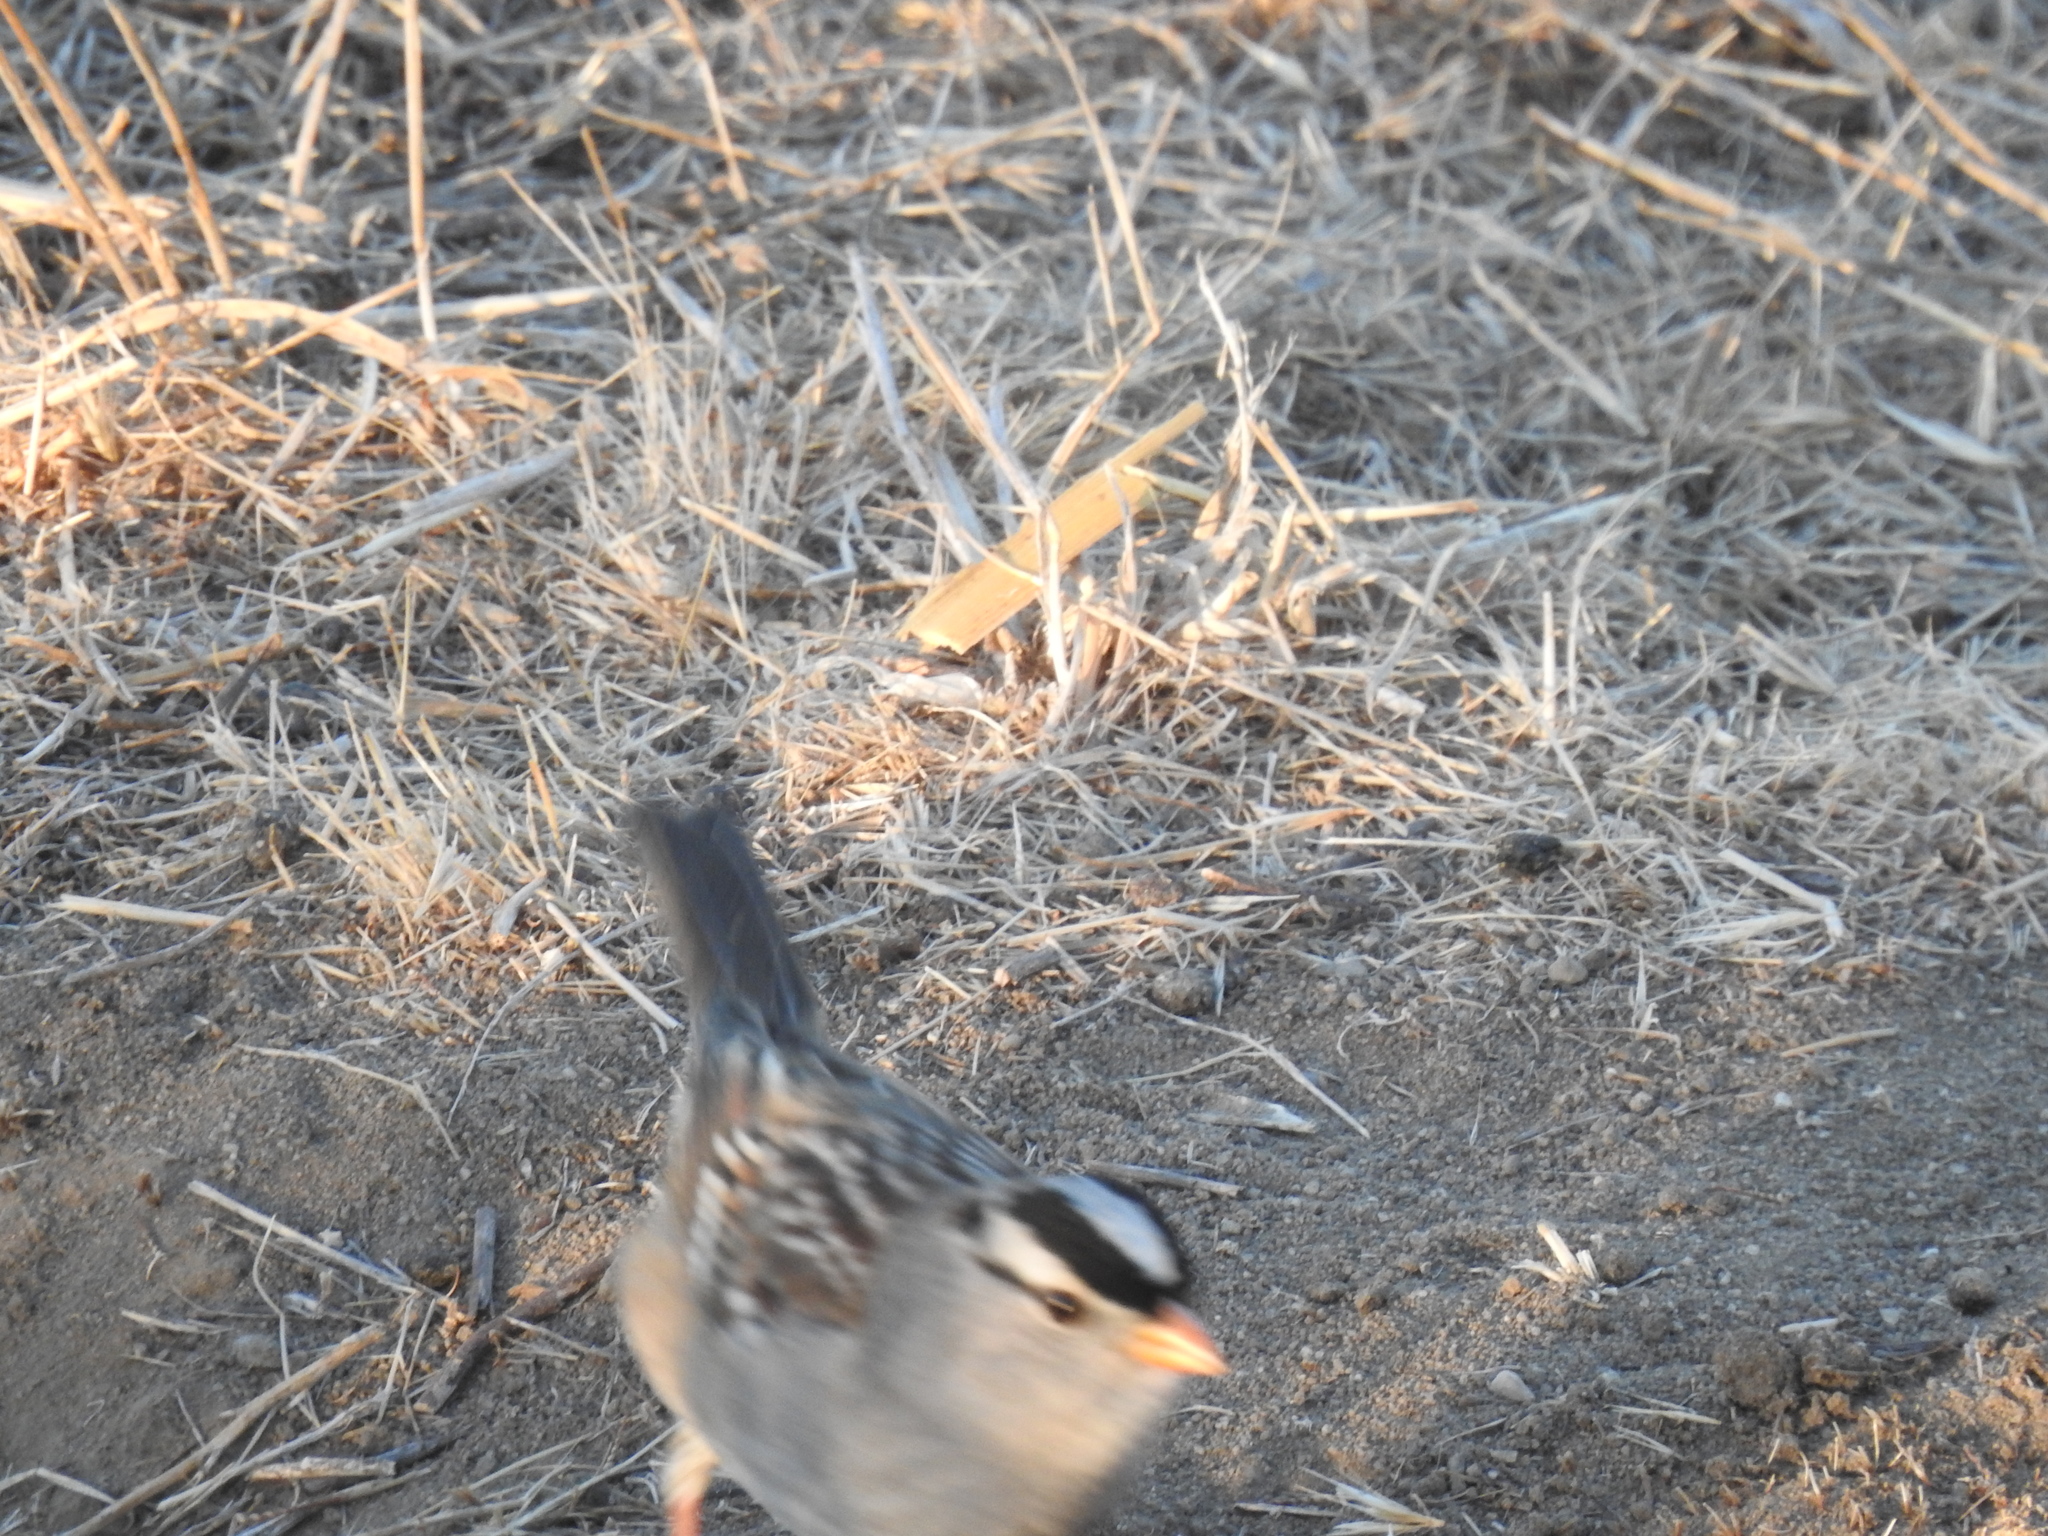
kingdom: Animalia
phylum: Chordata
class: Aves
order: Passeriformes
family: Passerellidae
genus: Zonotrichia
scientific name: Zonotrichia leucophrys
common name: White-crowned sparrow
